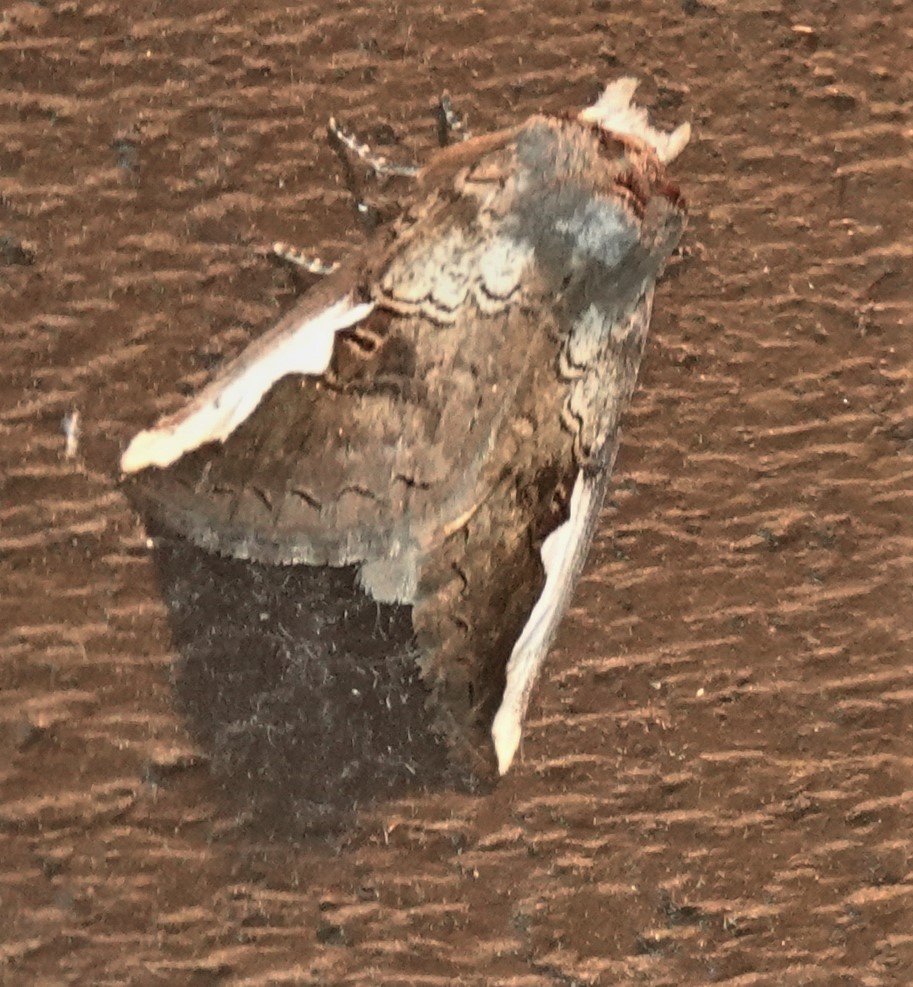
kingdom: Animalia
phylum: Arthropoda
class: Insecta
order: Lepidoptera
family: Notodontidae
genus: Symmerista
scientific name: Symmerista albifrons
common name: White-headed prominent
